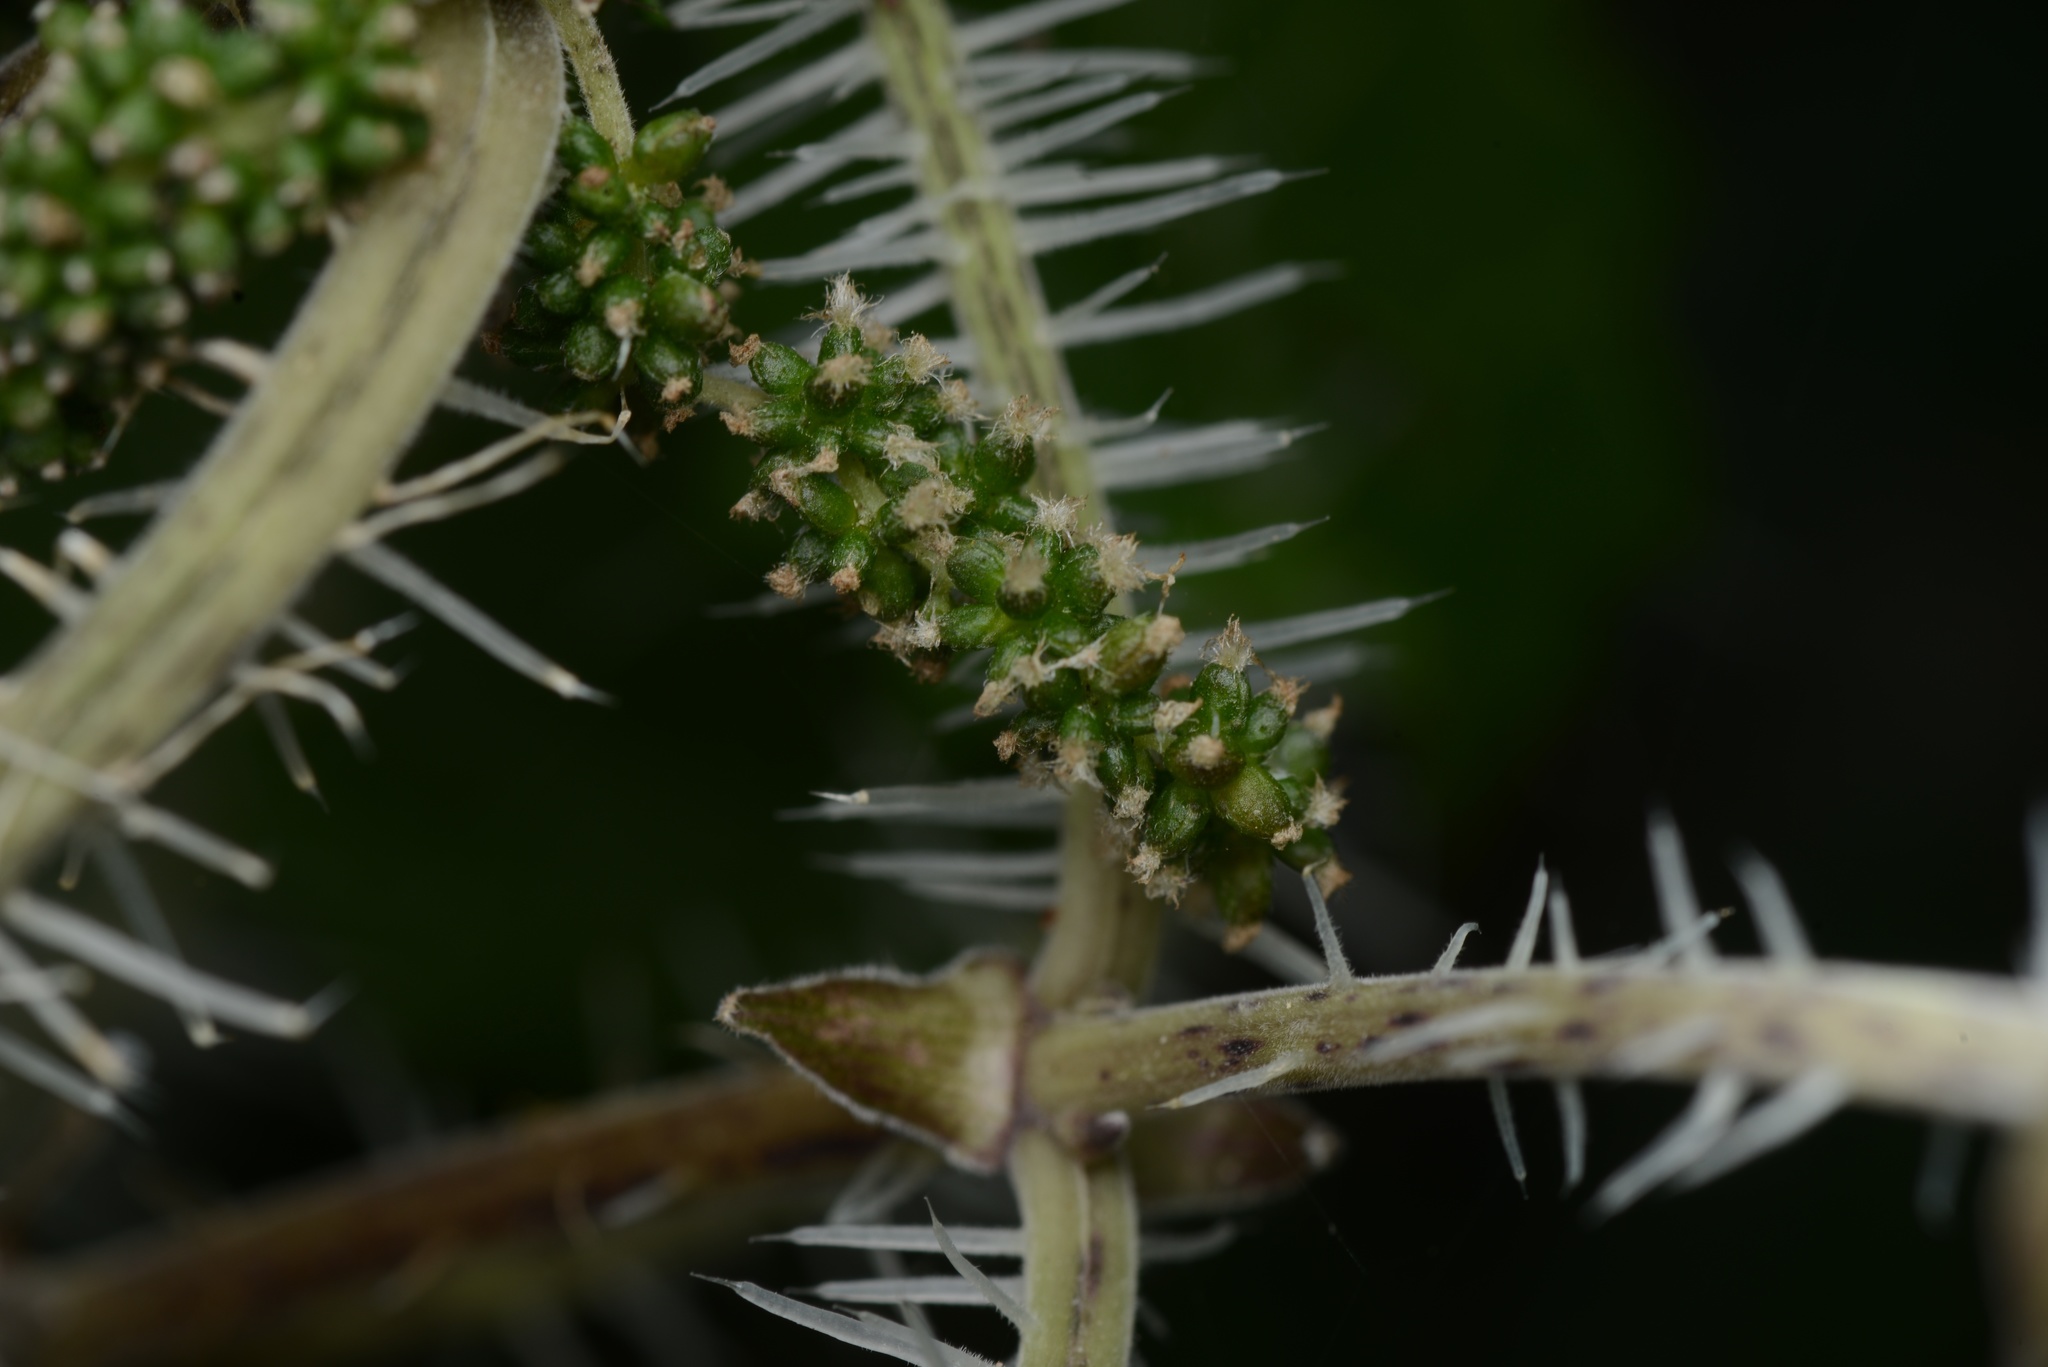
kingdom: Plantae
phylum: Tracheophyta
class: Magnoliopsida
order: Rosales
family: Urticaceae
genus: Urtica
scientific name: Urtica ferox
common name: Tree nettle
